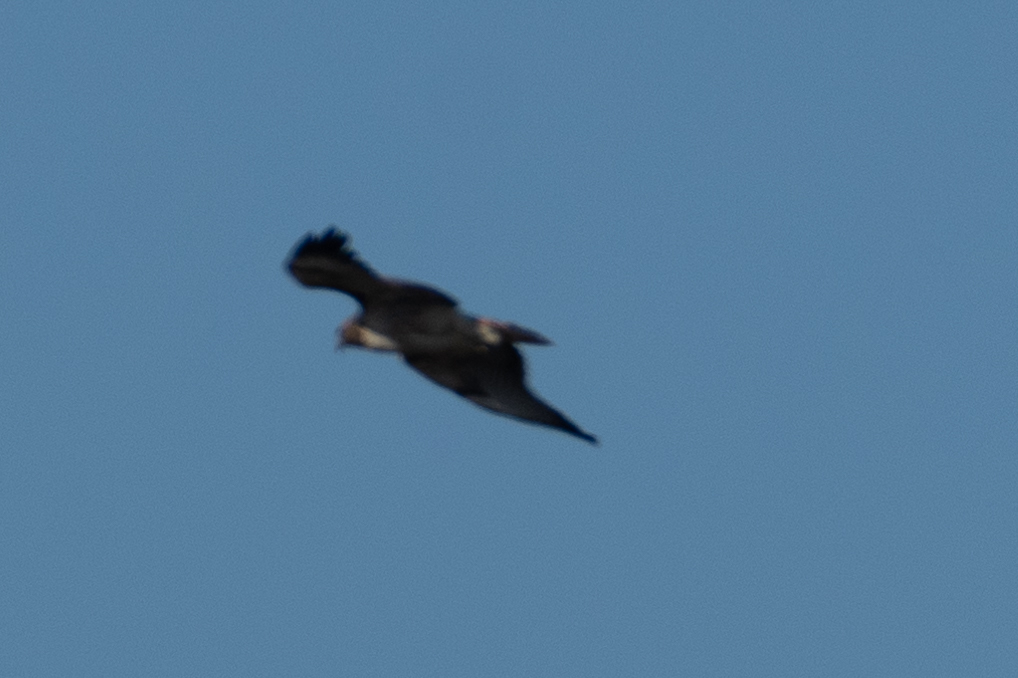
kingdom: Animalia
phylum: Chordata
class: Aves
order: Accipitriformes
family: Accipitridae
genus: Buteo
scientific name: Buteo jamaicensis
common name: Red-tailed hawk
